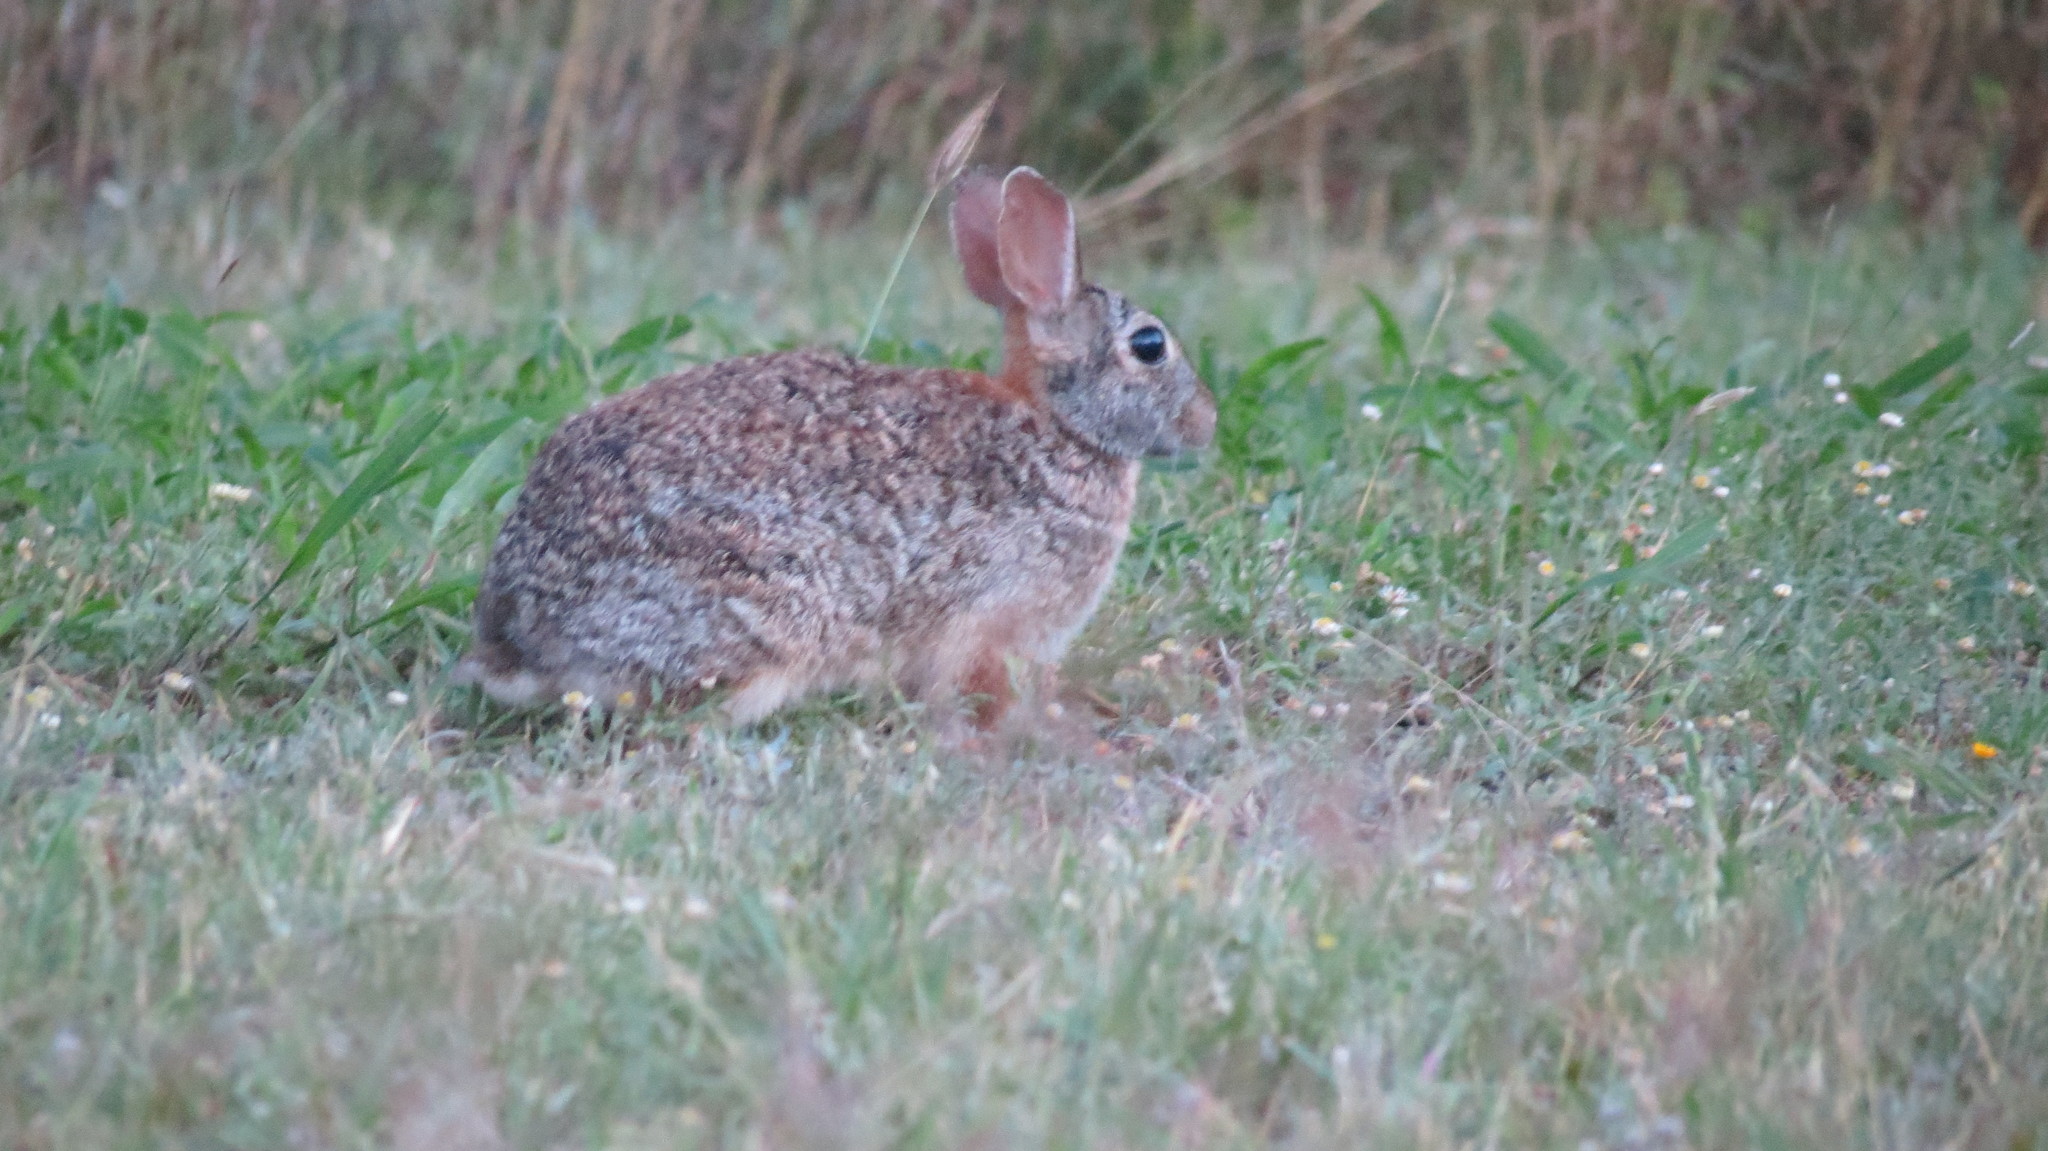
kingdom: Animalia
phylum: Chordata
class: Mammalia
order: Lagomorpha
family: Leporidae
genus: Sylvilagus
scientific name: Sylvilagus floridanus
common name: Eastern cottontail
